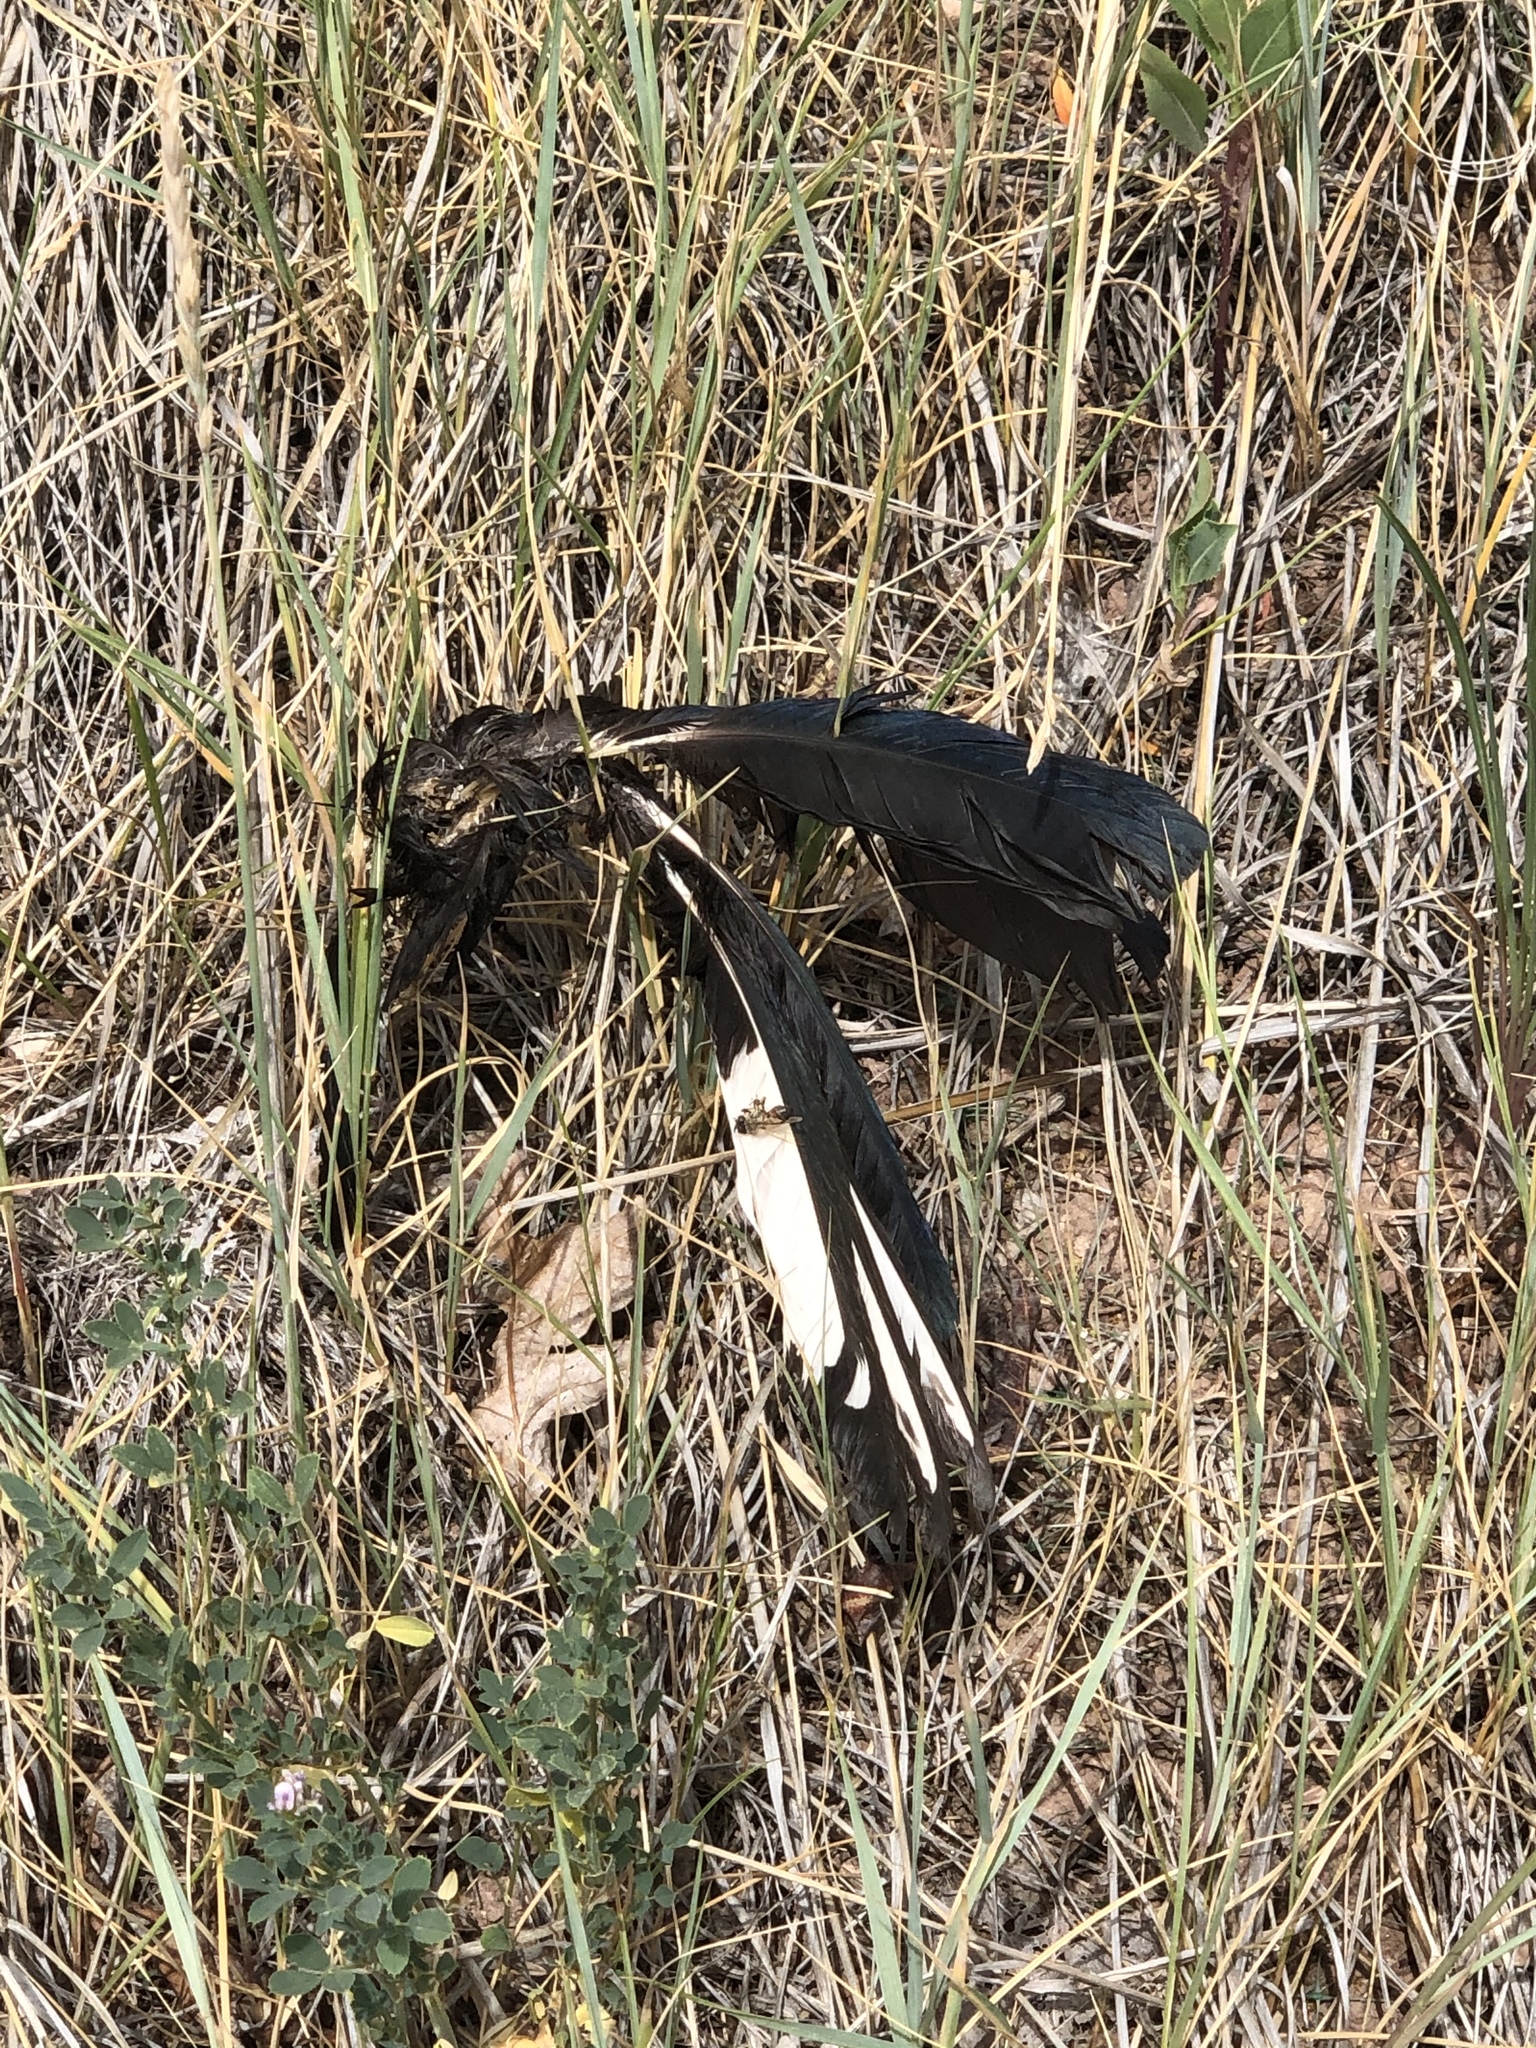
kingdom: Animalia
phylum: Chordata
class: Aves
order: Passeriformes
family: Corvidae
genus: Pica
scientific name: Pica hudsonia
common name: Black-billed magpie
